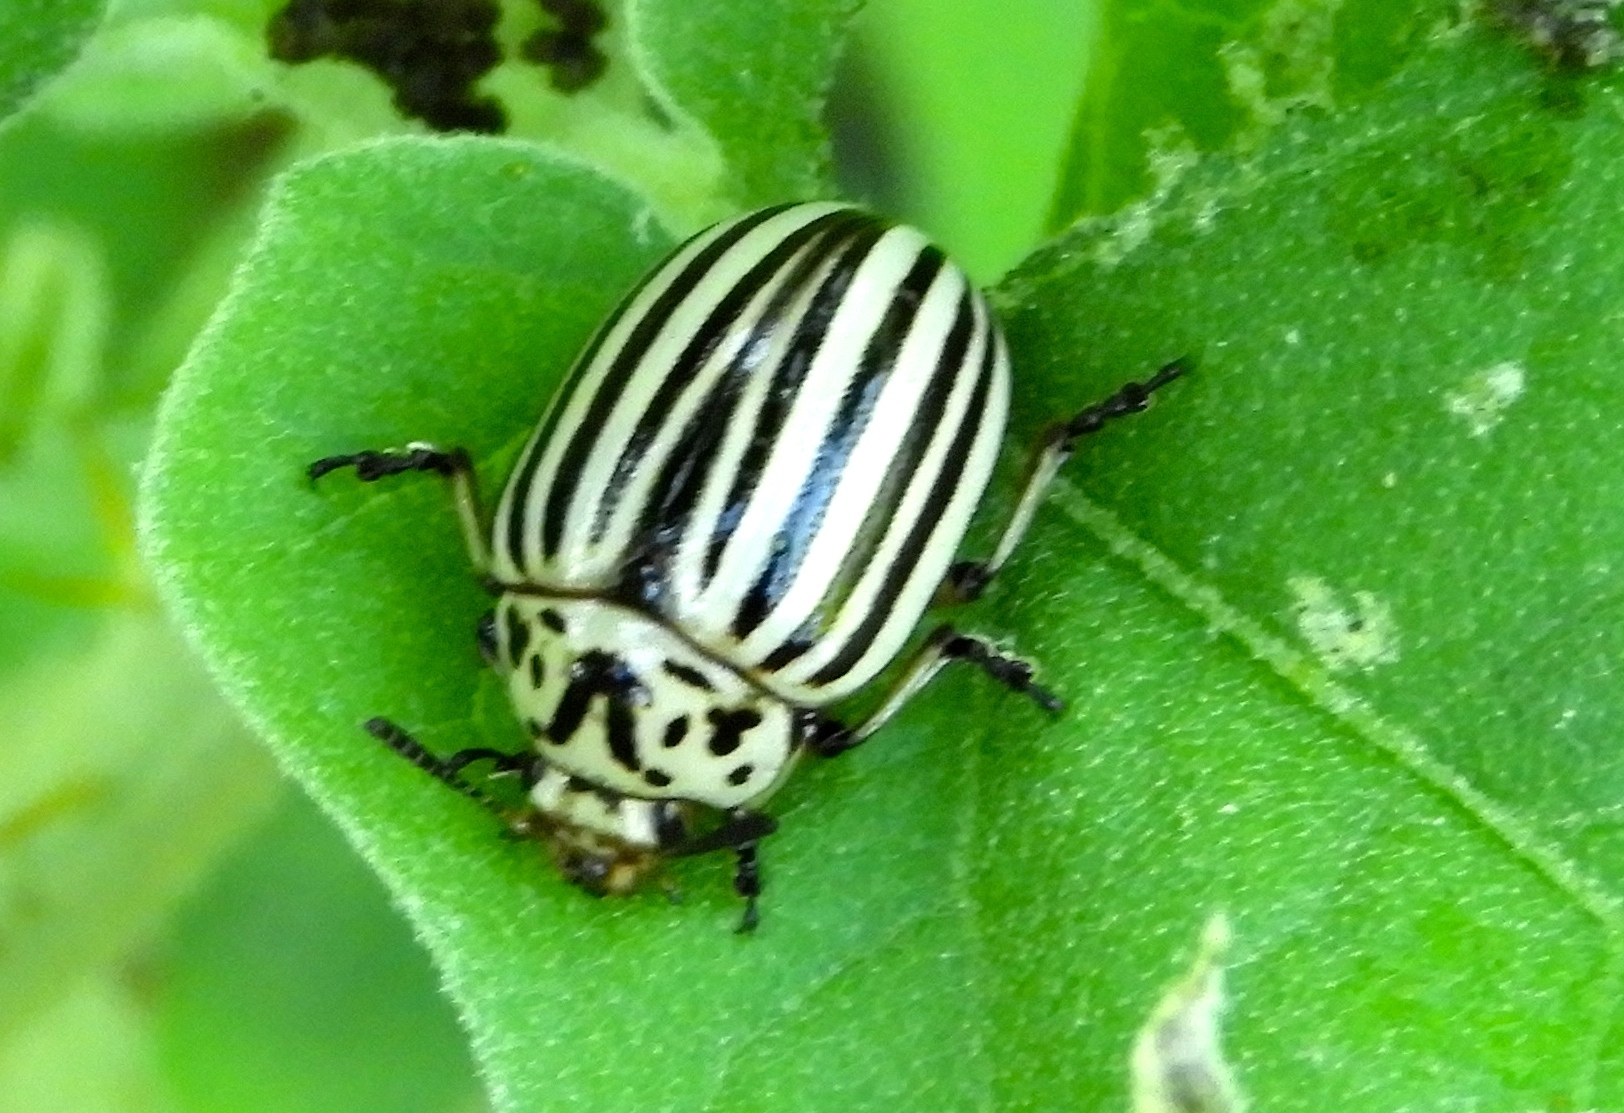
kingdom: Animalia
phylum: Arthropoda
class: Insecta
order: Coleoptera
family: Chrysomelidae
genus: Leptinotarsa
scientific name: Leptinotarsa decemlineata
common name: Colorado potato beetle
